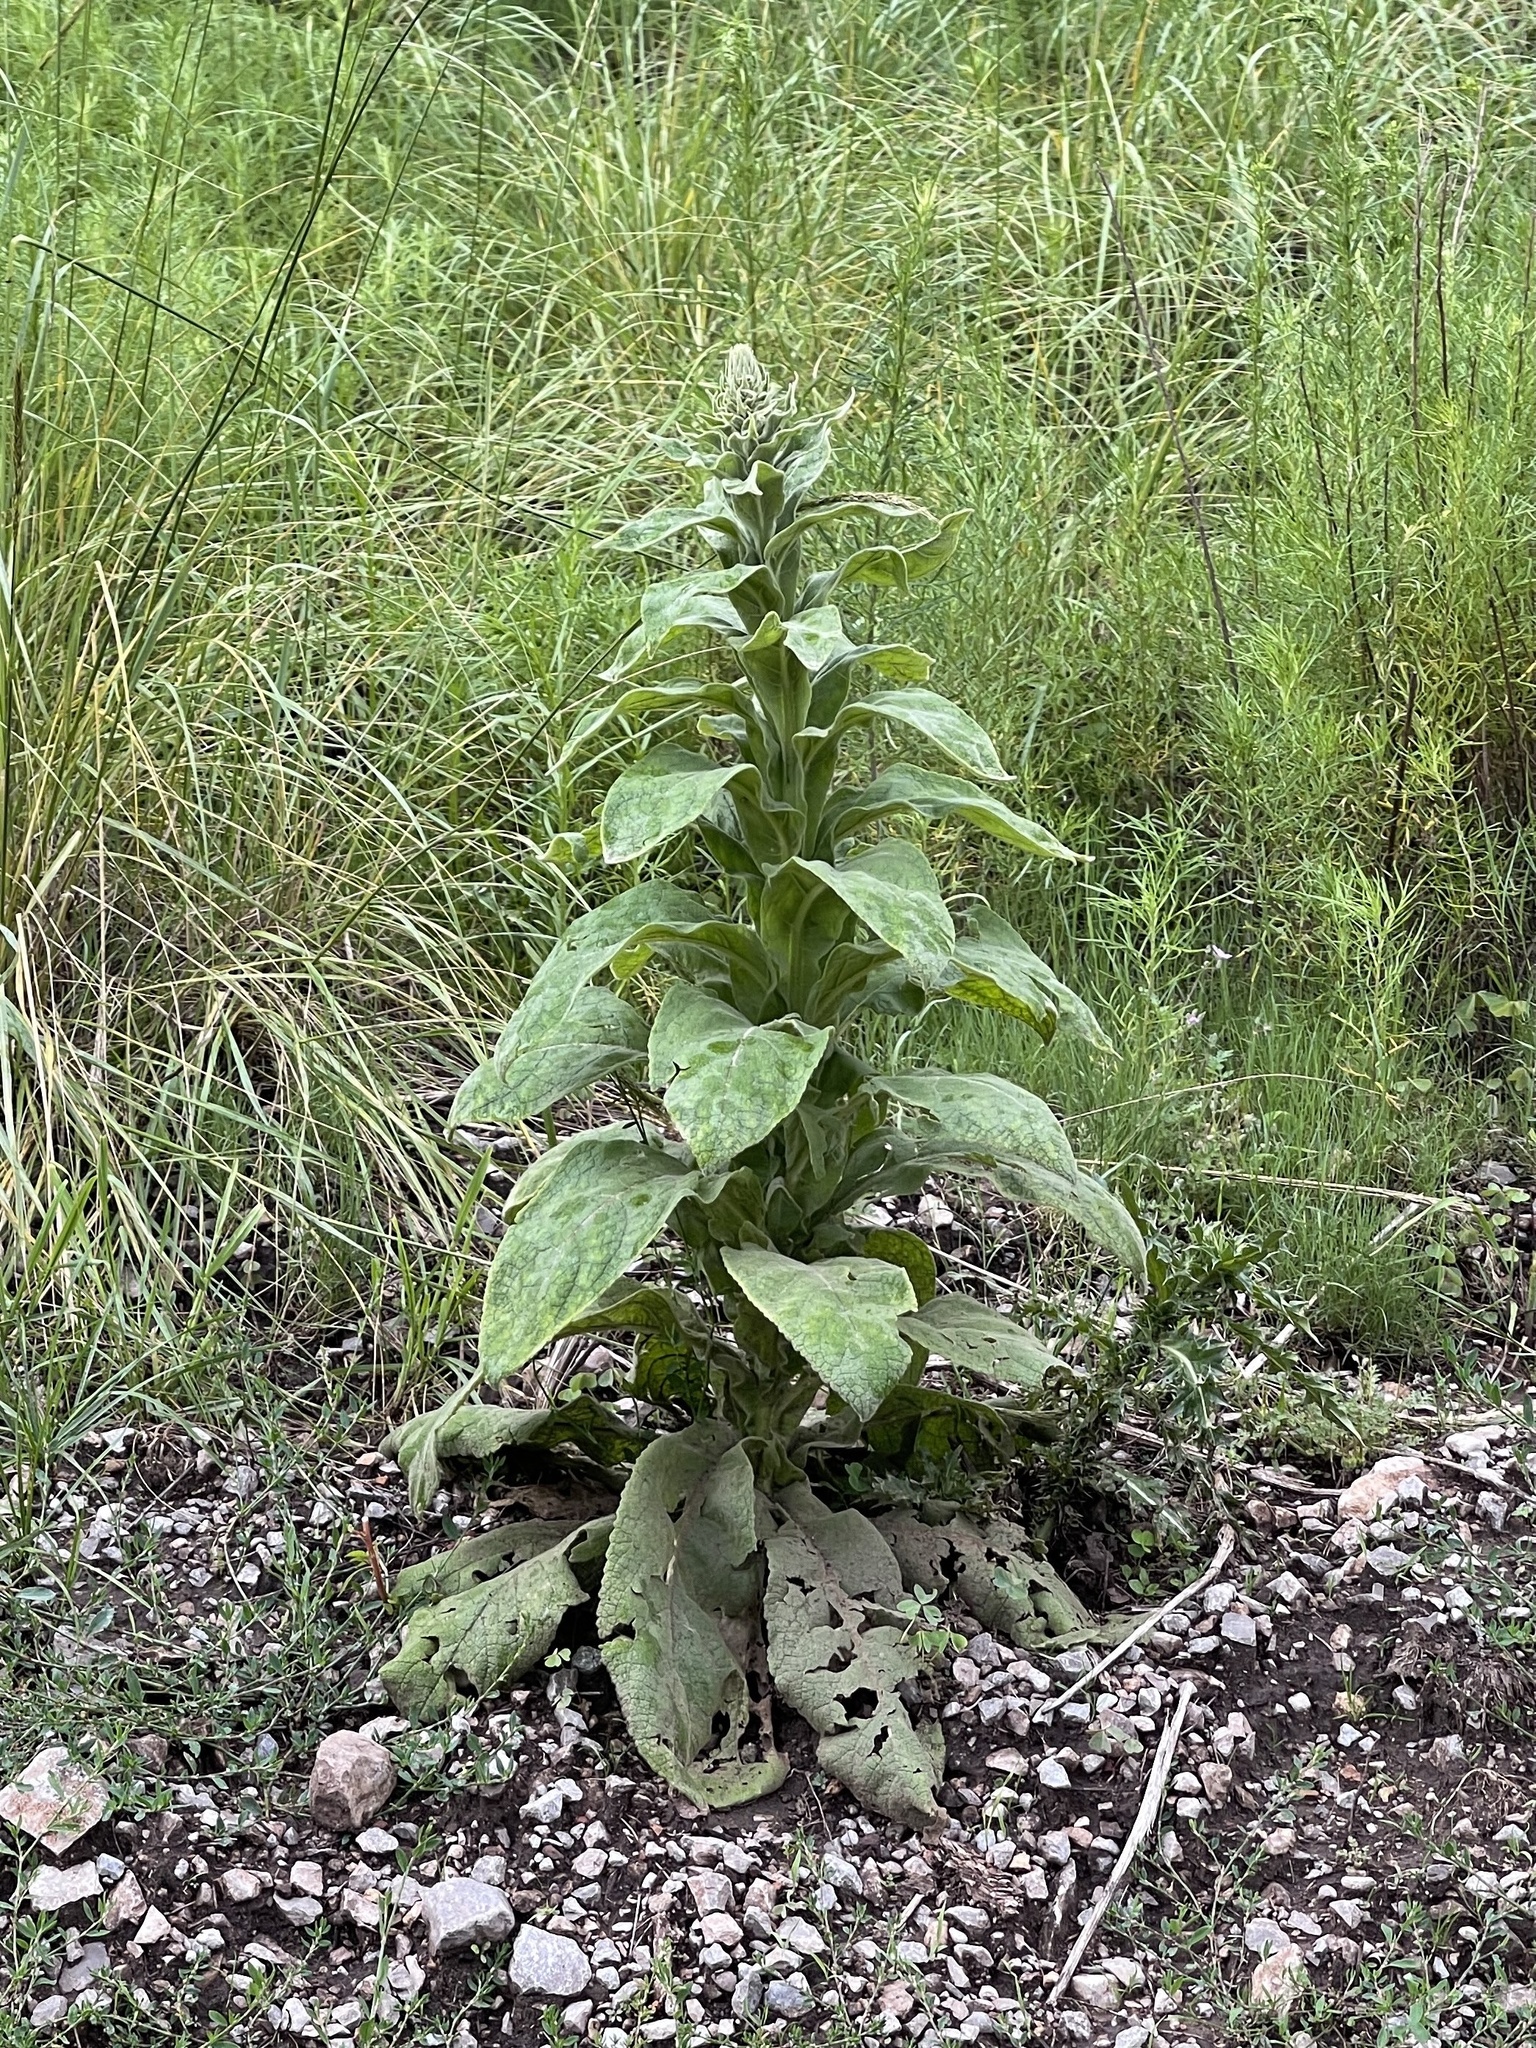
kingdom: Plantae
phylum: Tracheophyta
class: Magnoliopsida
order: Lamiales
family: Scrophulariaceae
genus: Verbascum
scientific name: Verbascum thapsus
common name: Common mullein
